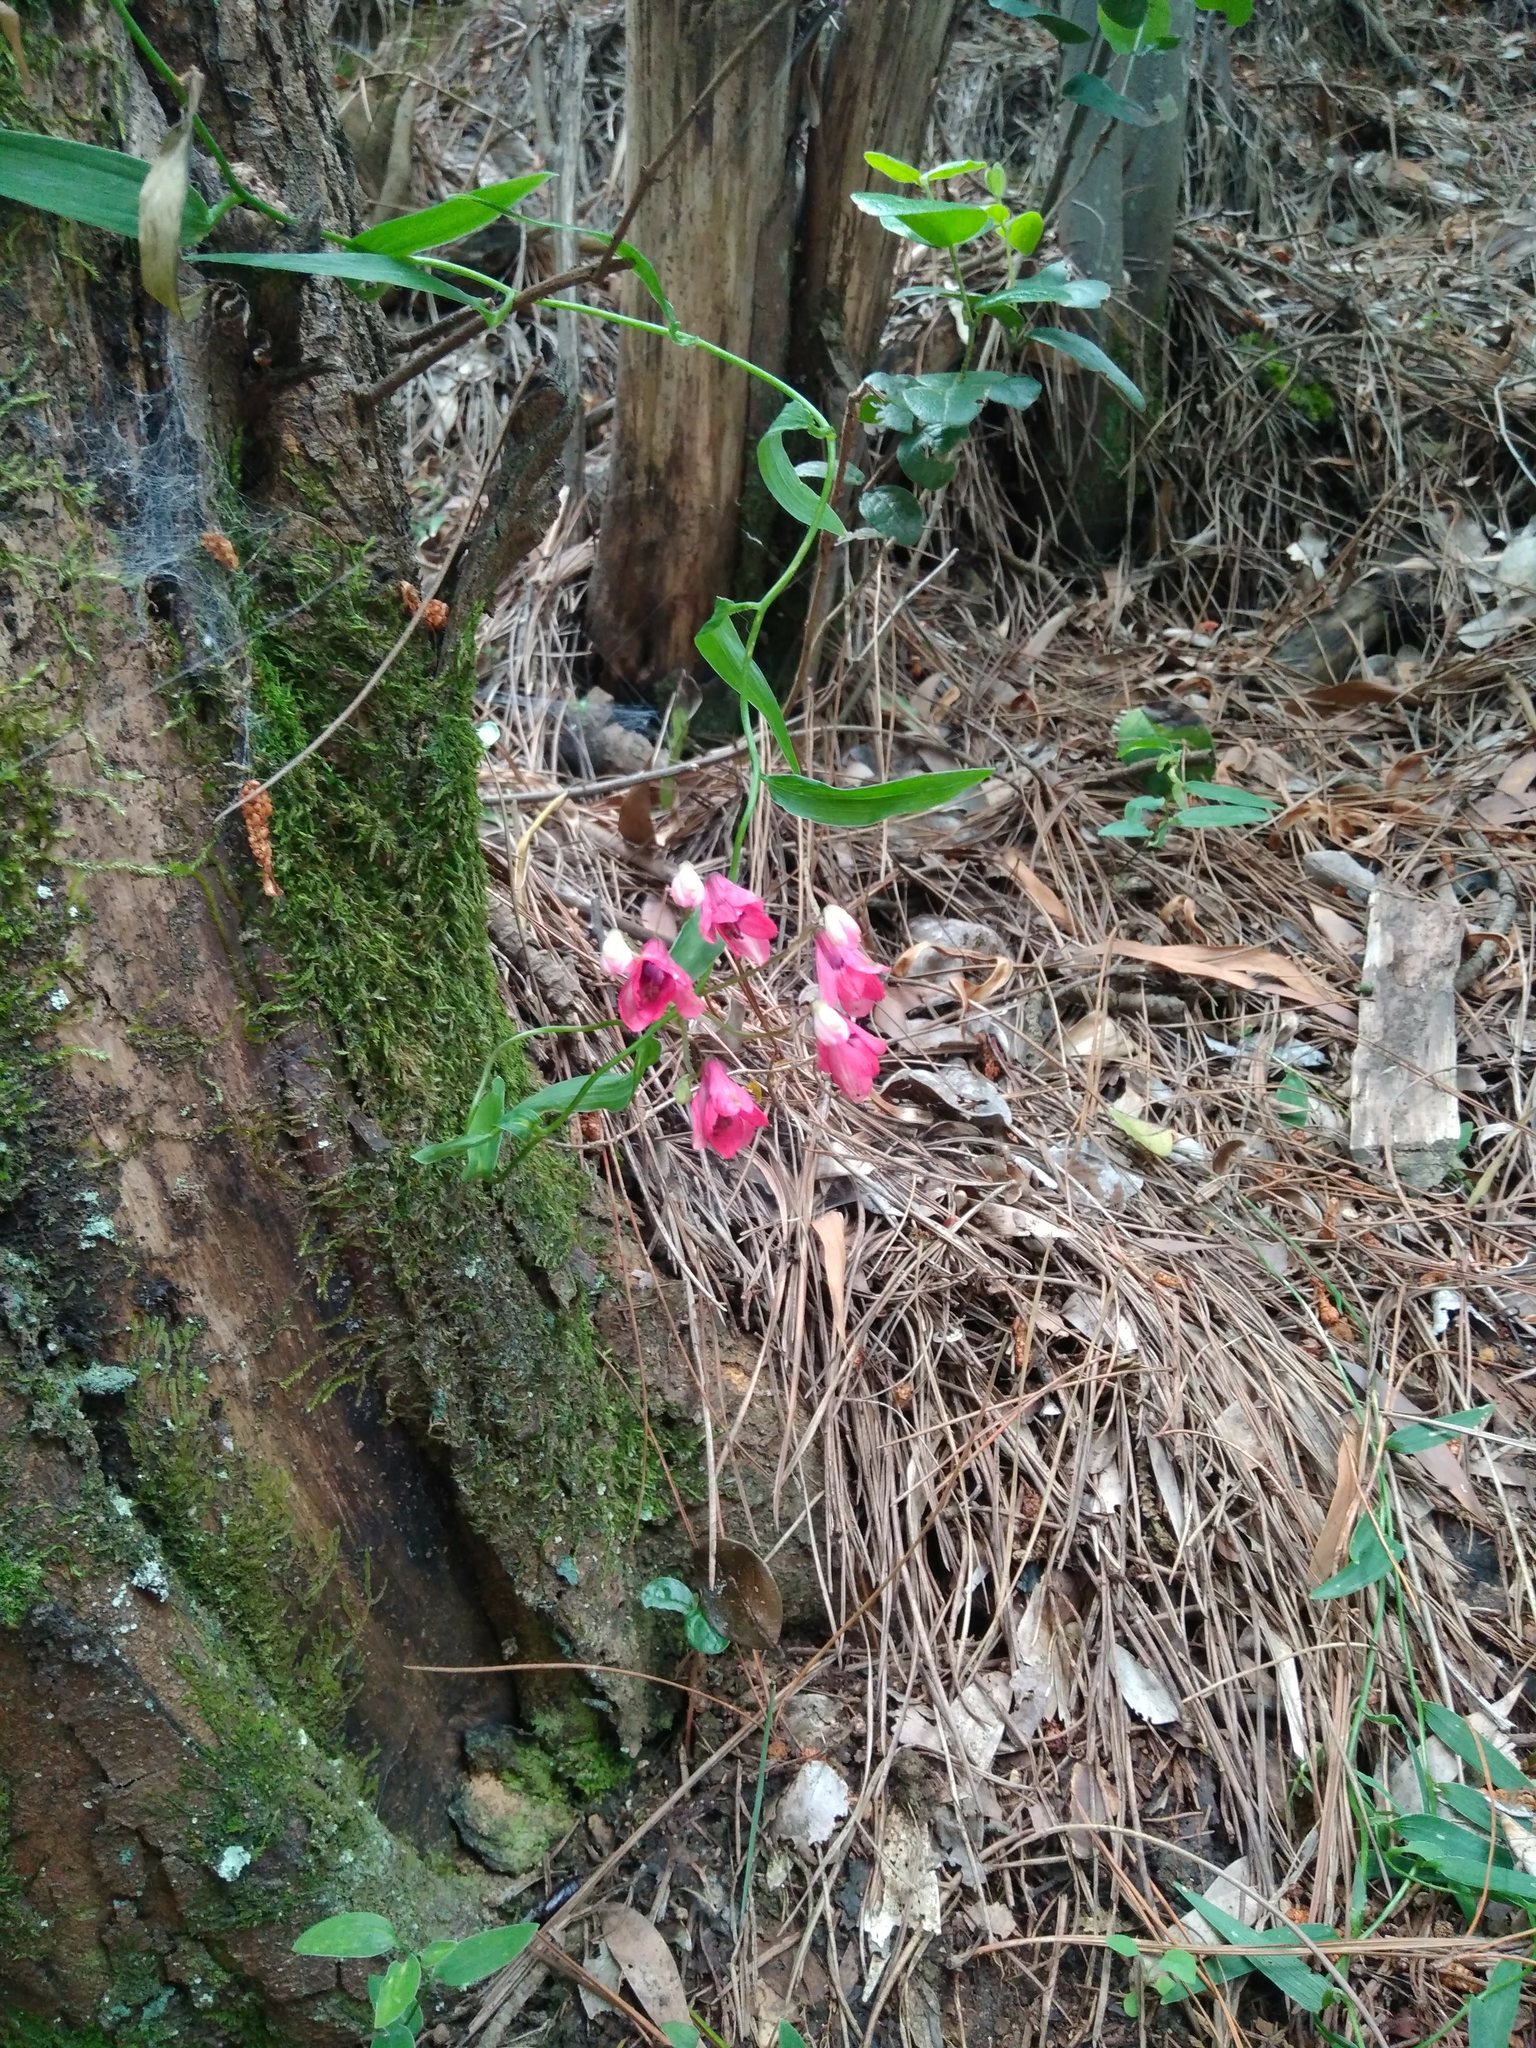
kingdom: Plantae
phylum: Tracheophyta
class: Liliopsida
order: Liliales
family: Alstroemeriaceae
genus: Bomarea
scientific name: Bomarea salsilla
